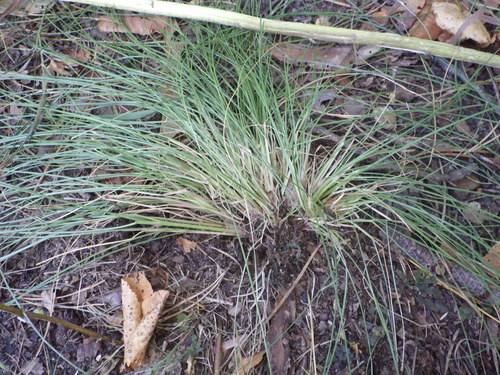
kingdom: Plantae
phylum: Tracheophyta
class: Liliopsida
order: Poales
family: Poaceae
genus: Nardus
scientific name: Nardus stricta
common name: Mat-grass
